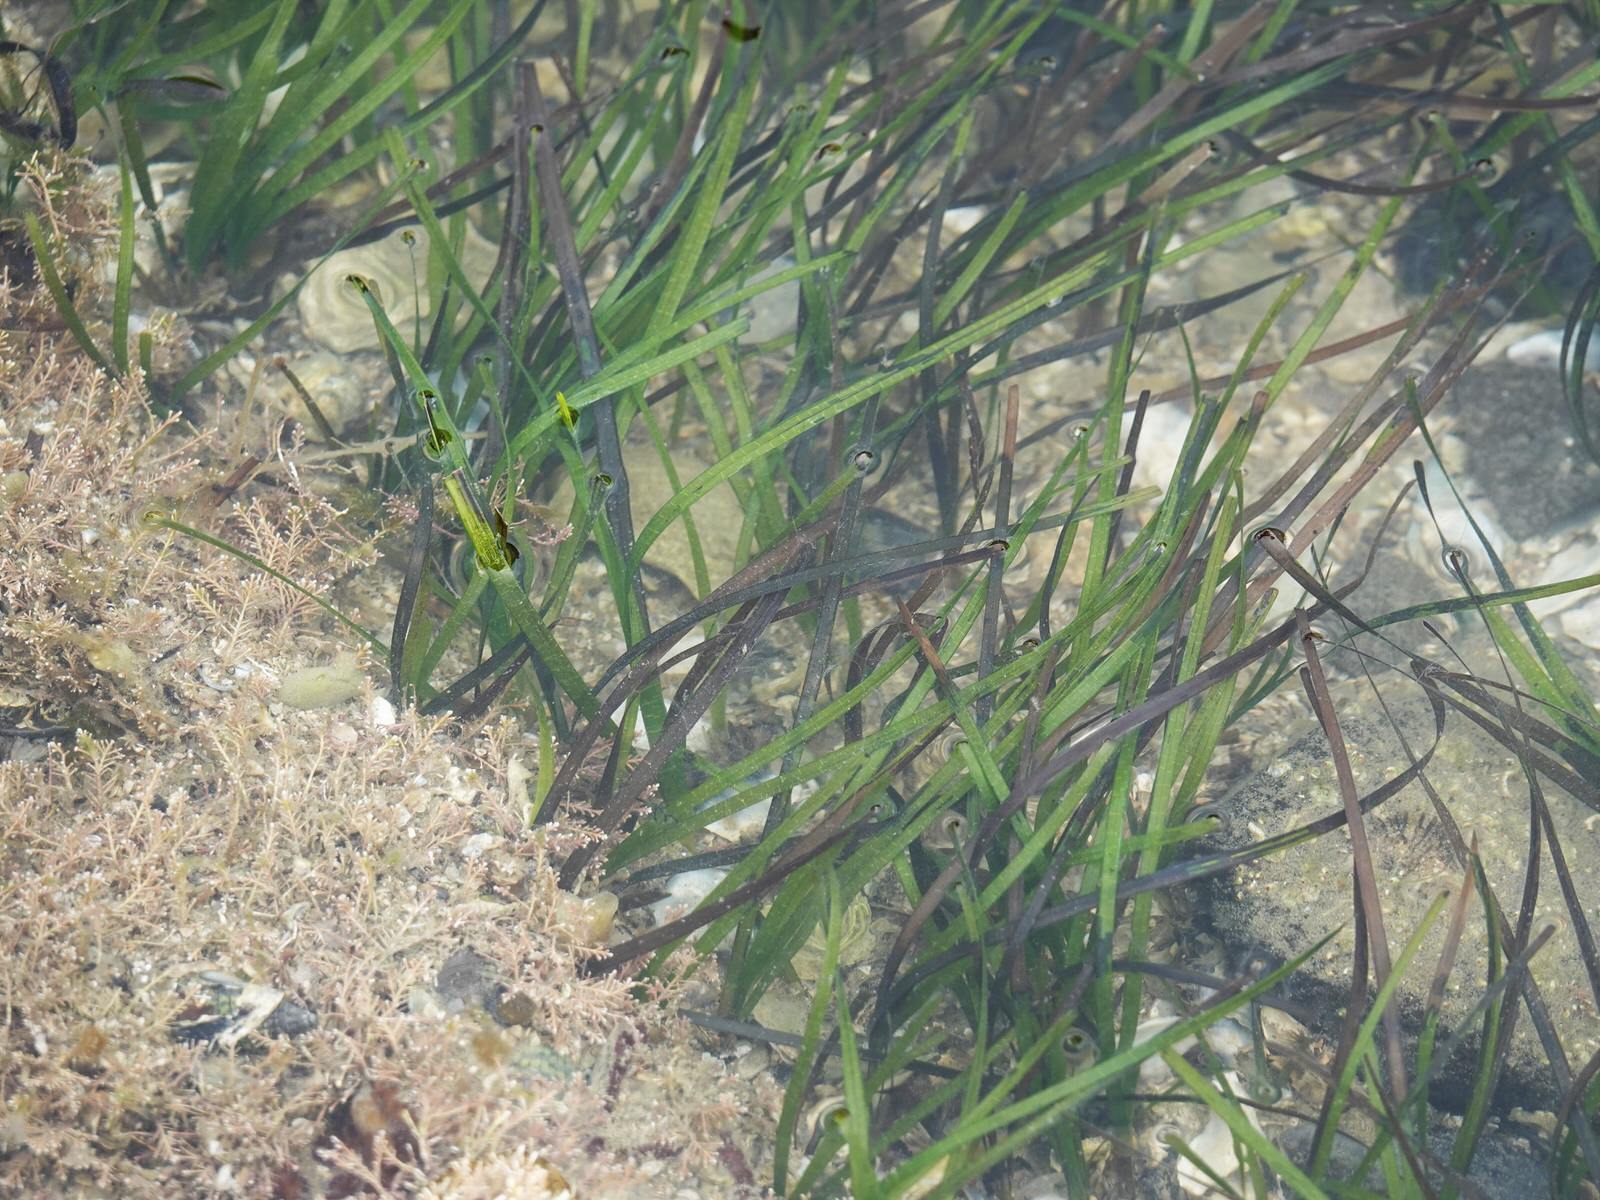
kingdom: Plantae
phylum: Tracheophyta
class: Liliopsida
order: Alismatales
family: Zosteraceae
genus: Zostera
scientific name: Zostera novazelandica
